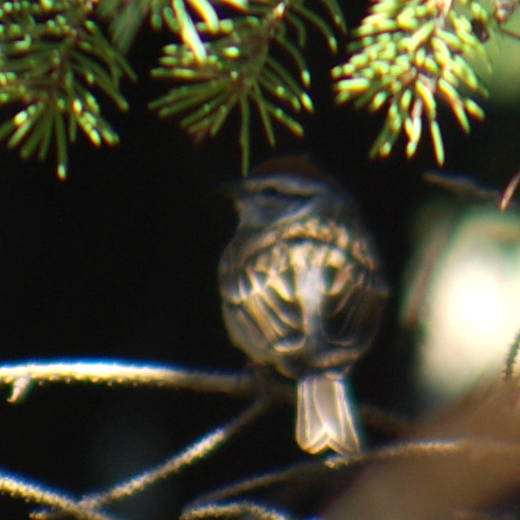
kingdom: Animalia
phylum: Chordata
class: Aves
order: Passeriformes
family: Passerellidae
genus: Spizella
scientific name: Spizella passerina
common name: Chipping sparrow
